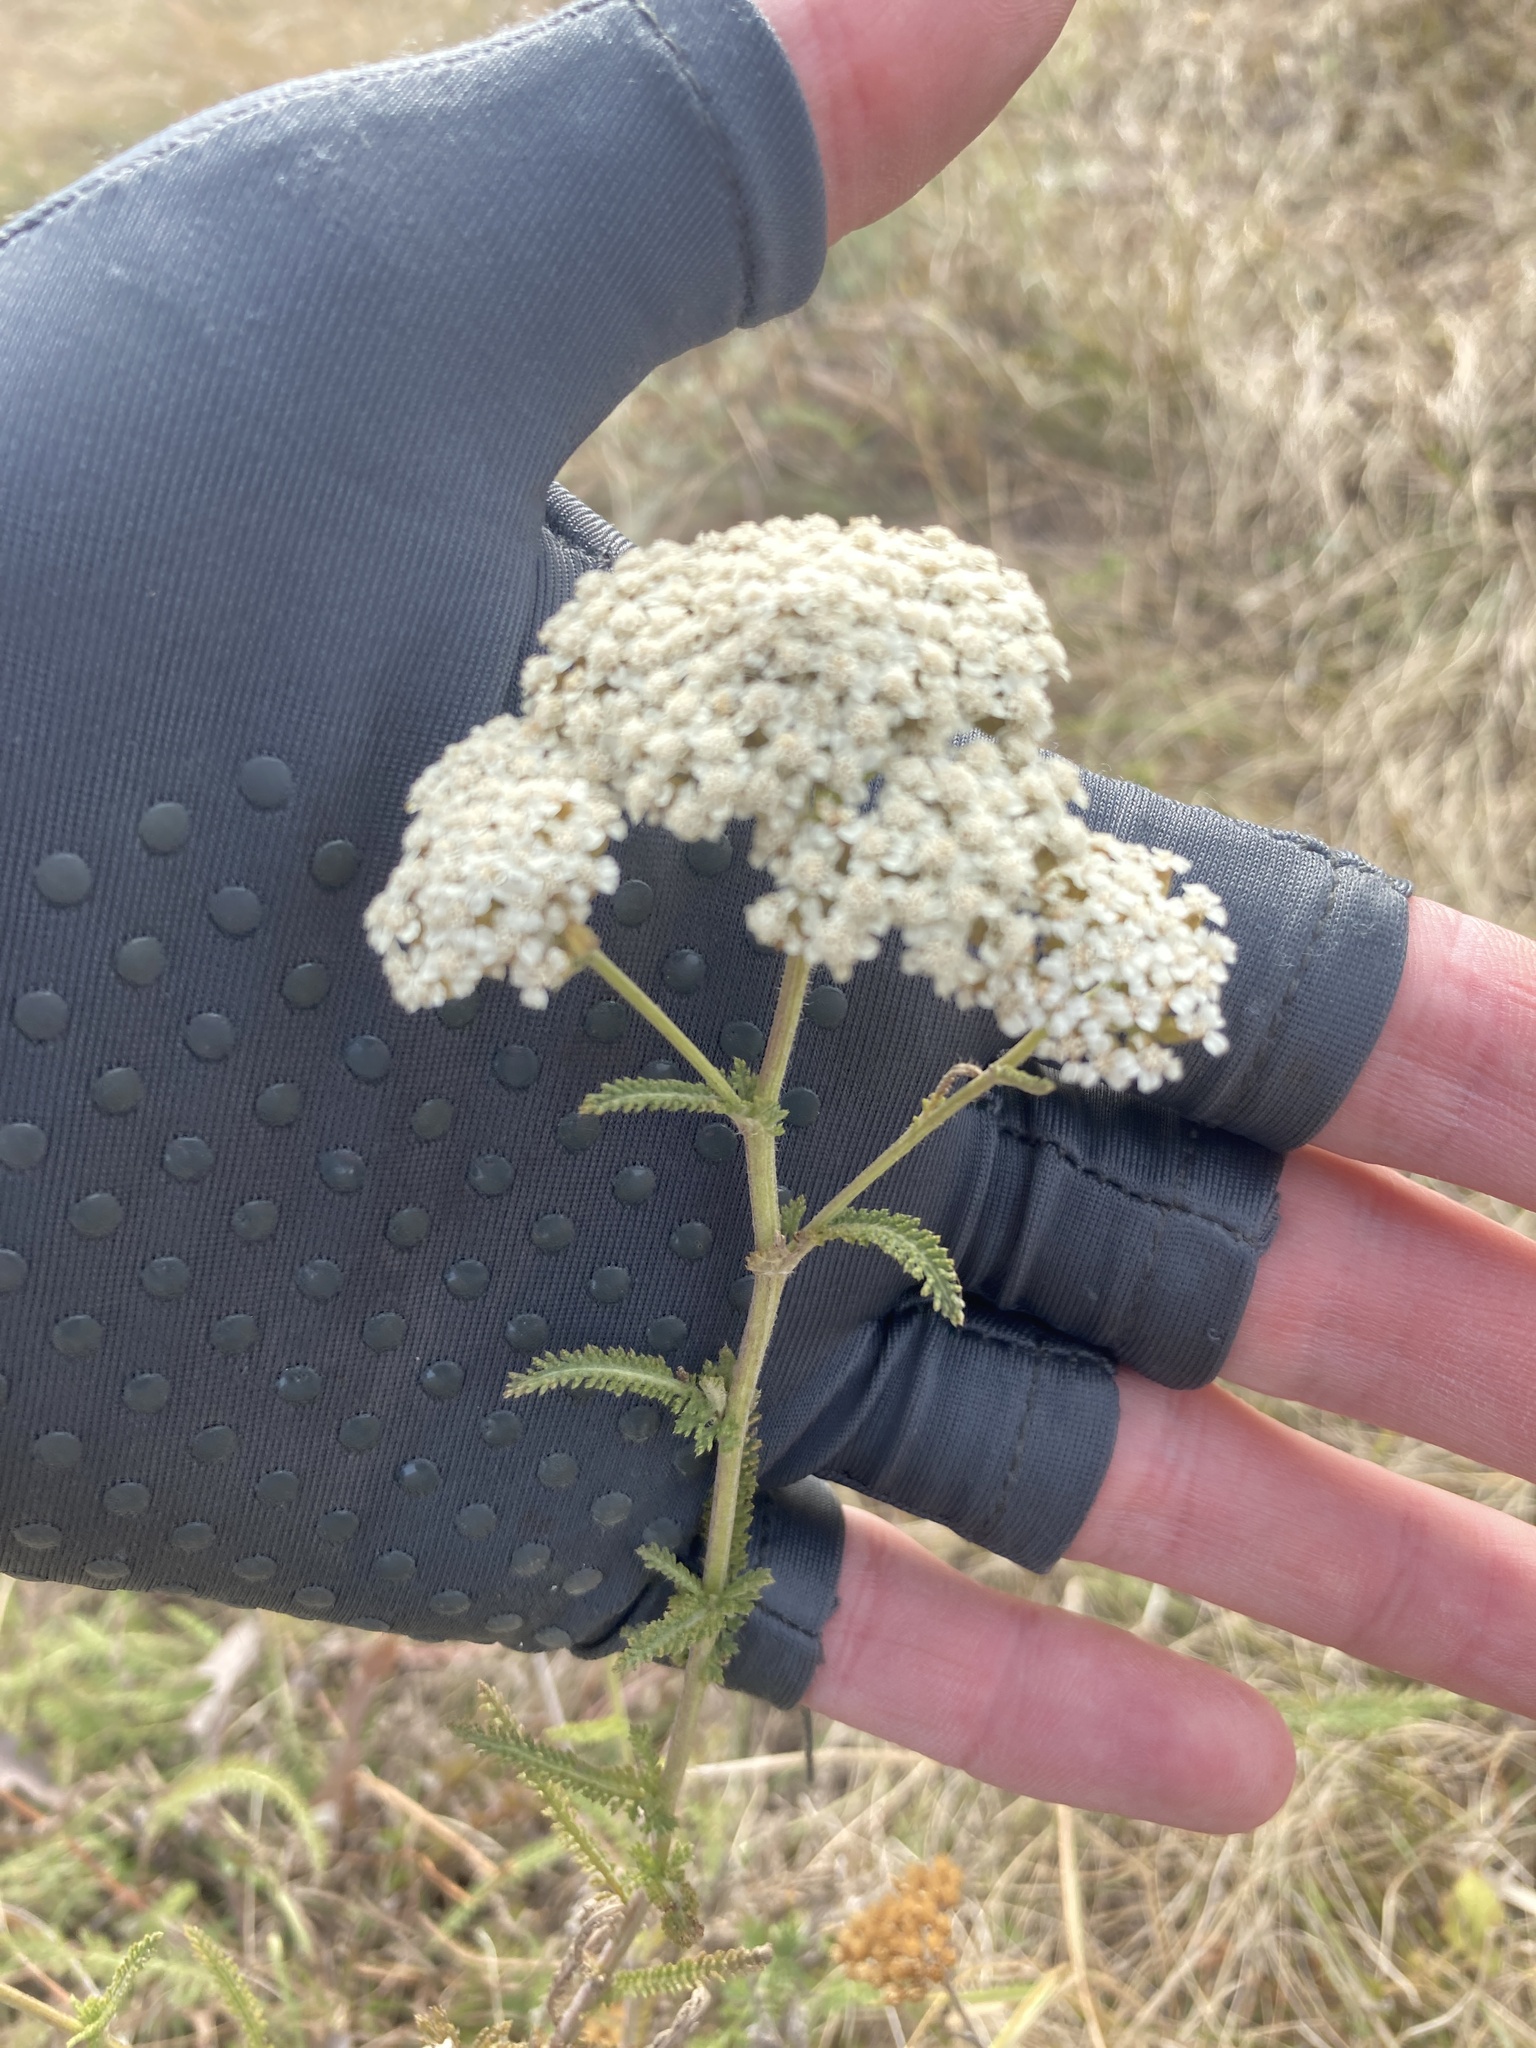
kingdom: Plantae
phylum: Tracheophyta
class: Magnoliopsida
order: Asterales
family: Asteraceae
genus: Achillea
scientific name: Achillea setacea
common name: Bristly yarrow
